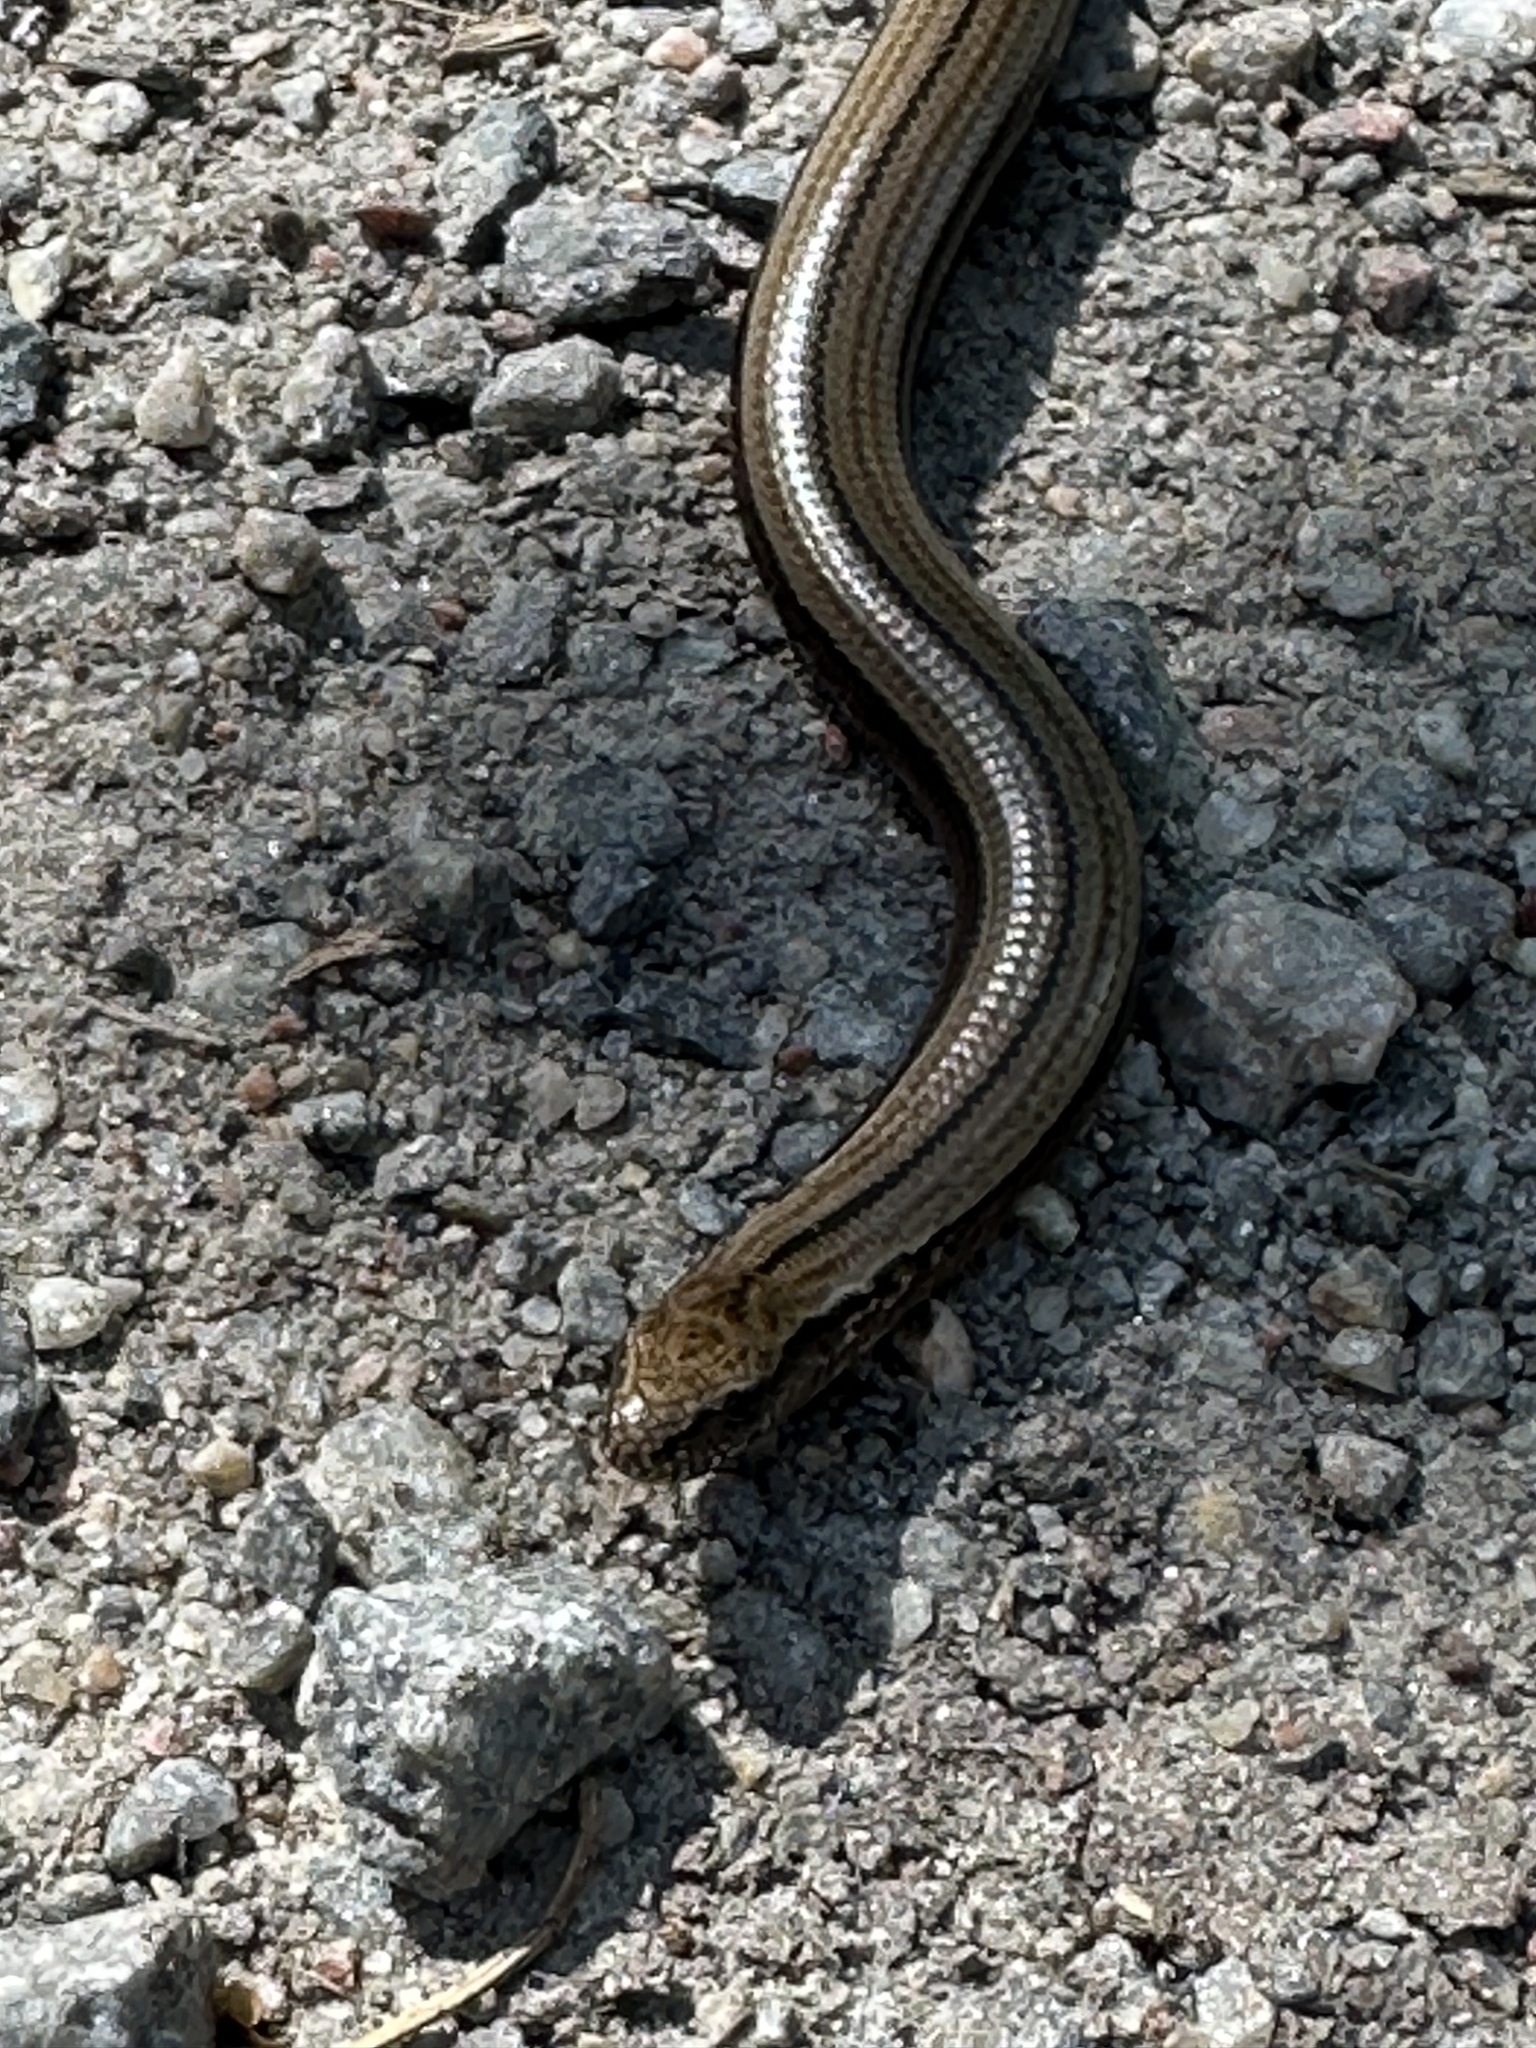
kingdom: Animalia
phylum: Chordata
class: Squamata
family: Anguidae
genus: Anguis
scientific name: Anguis fragilis
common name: Slow worm
